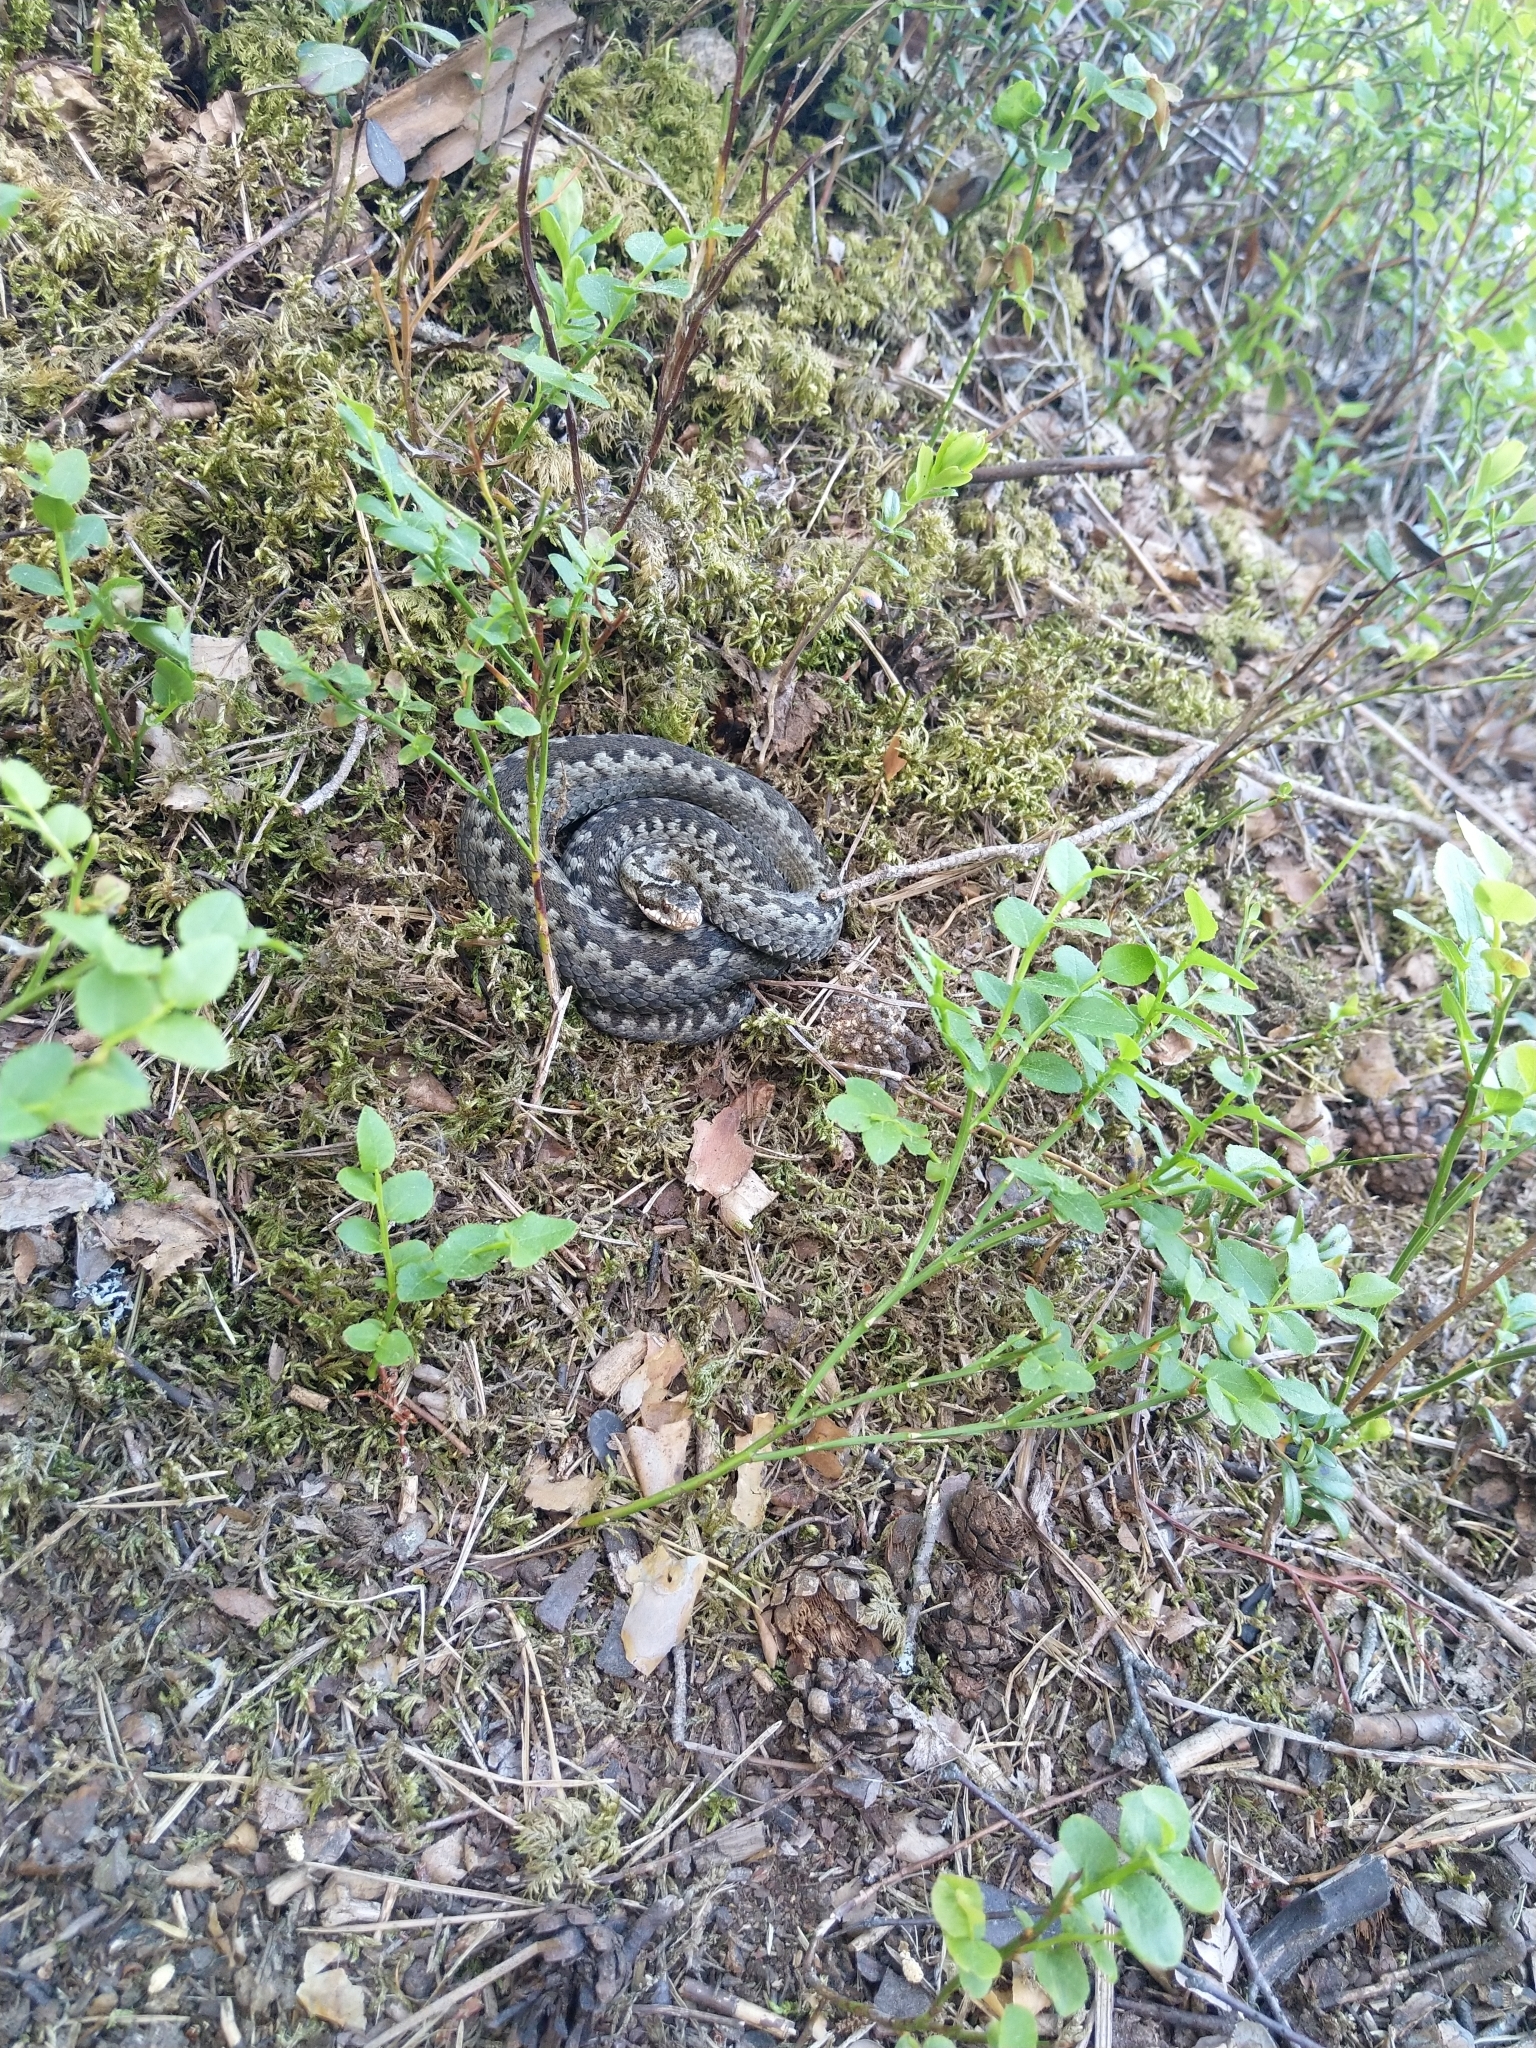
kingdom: Animalia
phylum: Chordata
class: Squamata
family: Viperidae
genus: Vipera
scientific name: Vipera berus
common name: Adder
